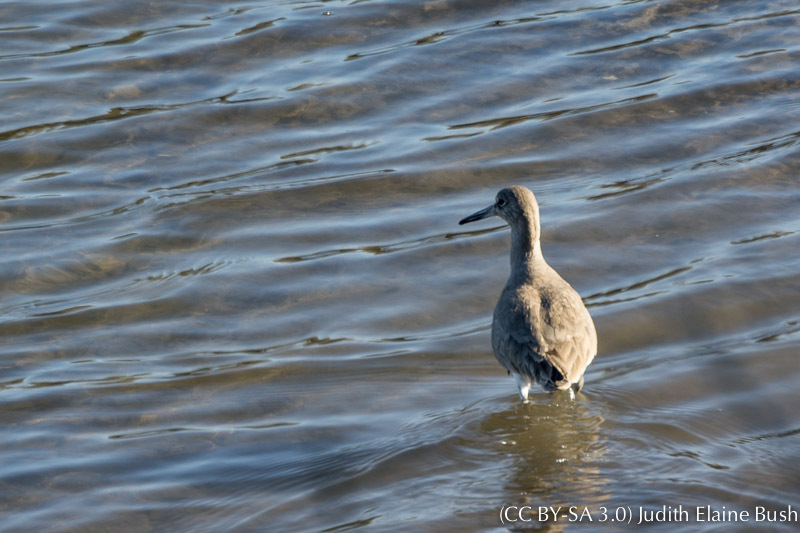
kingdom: Animalia
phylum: Chordata
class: Aves
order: Charadriiformes
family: Scolopacidae
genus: Tringa
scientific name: Tringa semipalmata
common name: Willet
